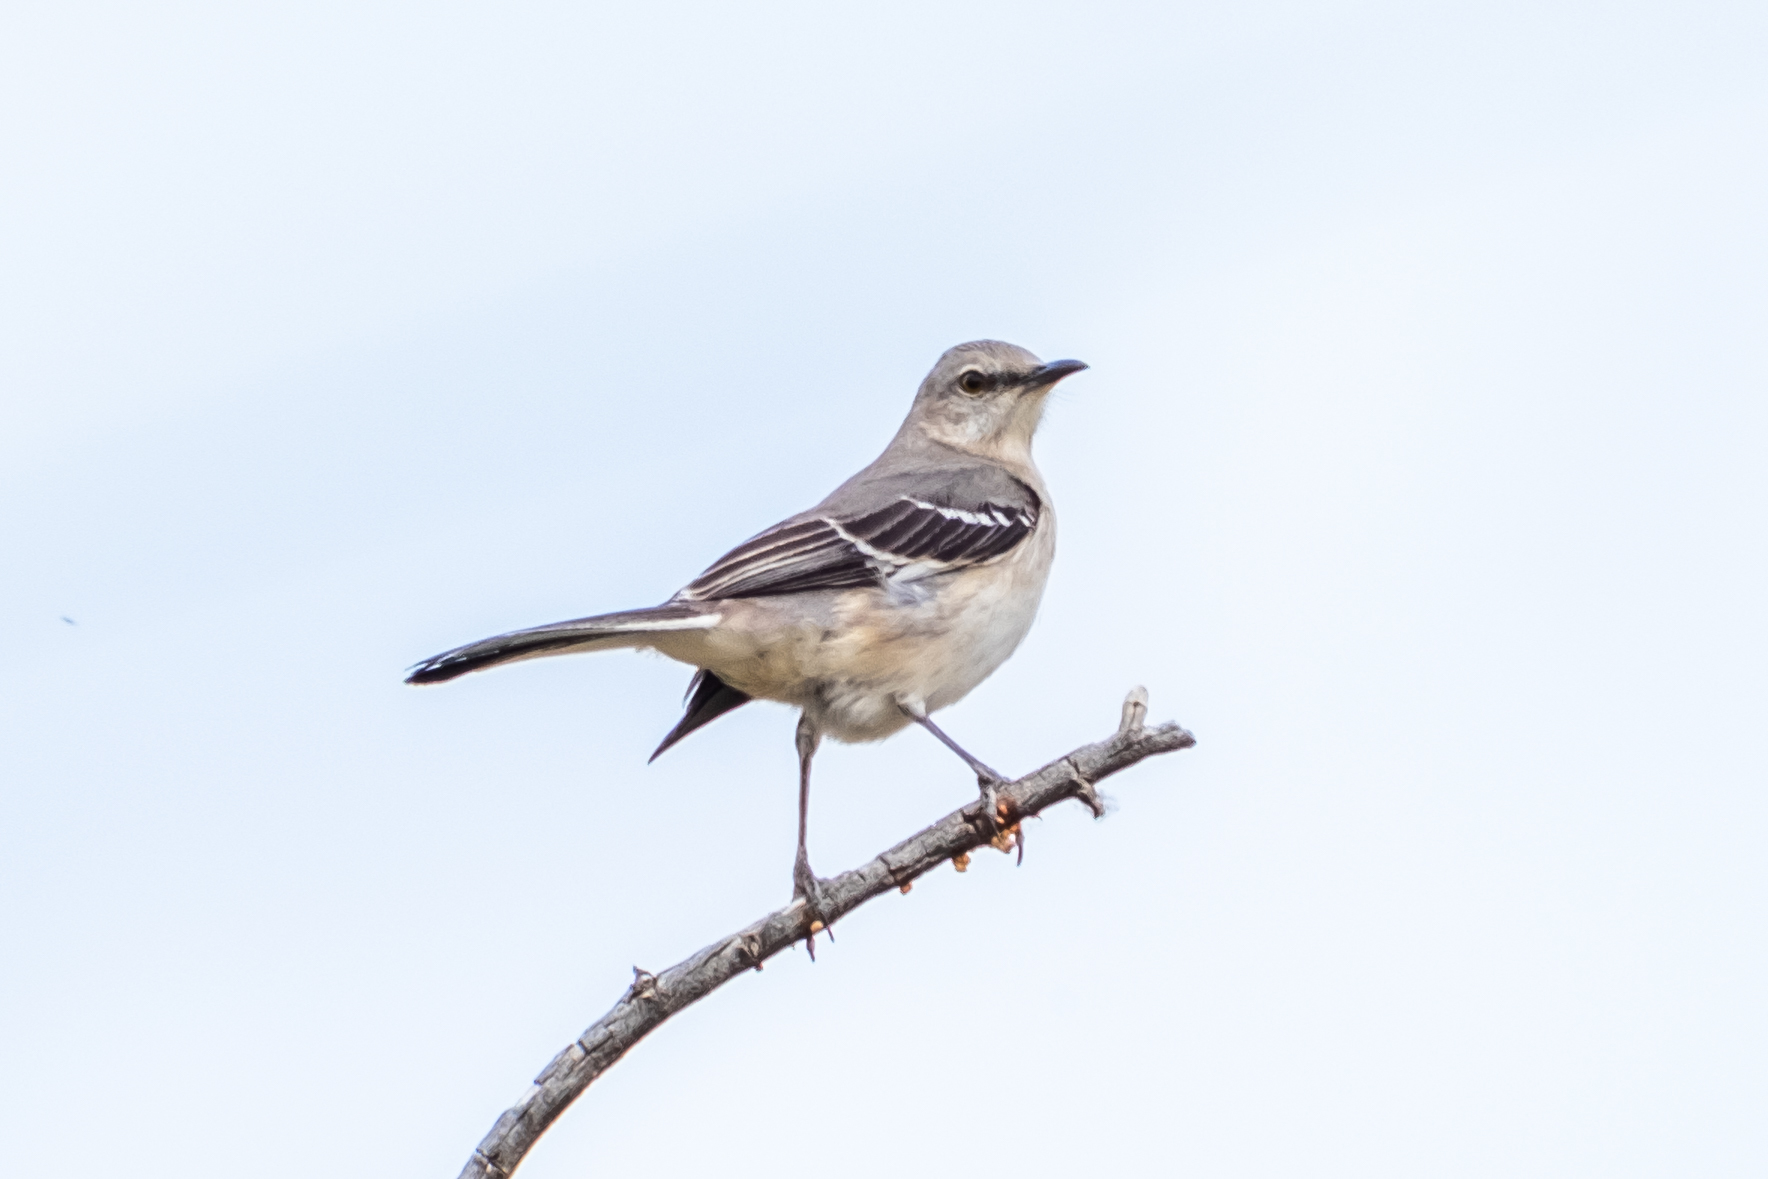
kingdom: Animalia
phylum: Chordata
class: Aves
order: Passeriformes
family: Mimidae
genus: Mimus
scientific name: Mimus polyglottos
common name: Northern mockingbird
